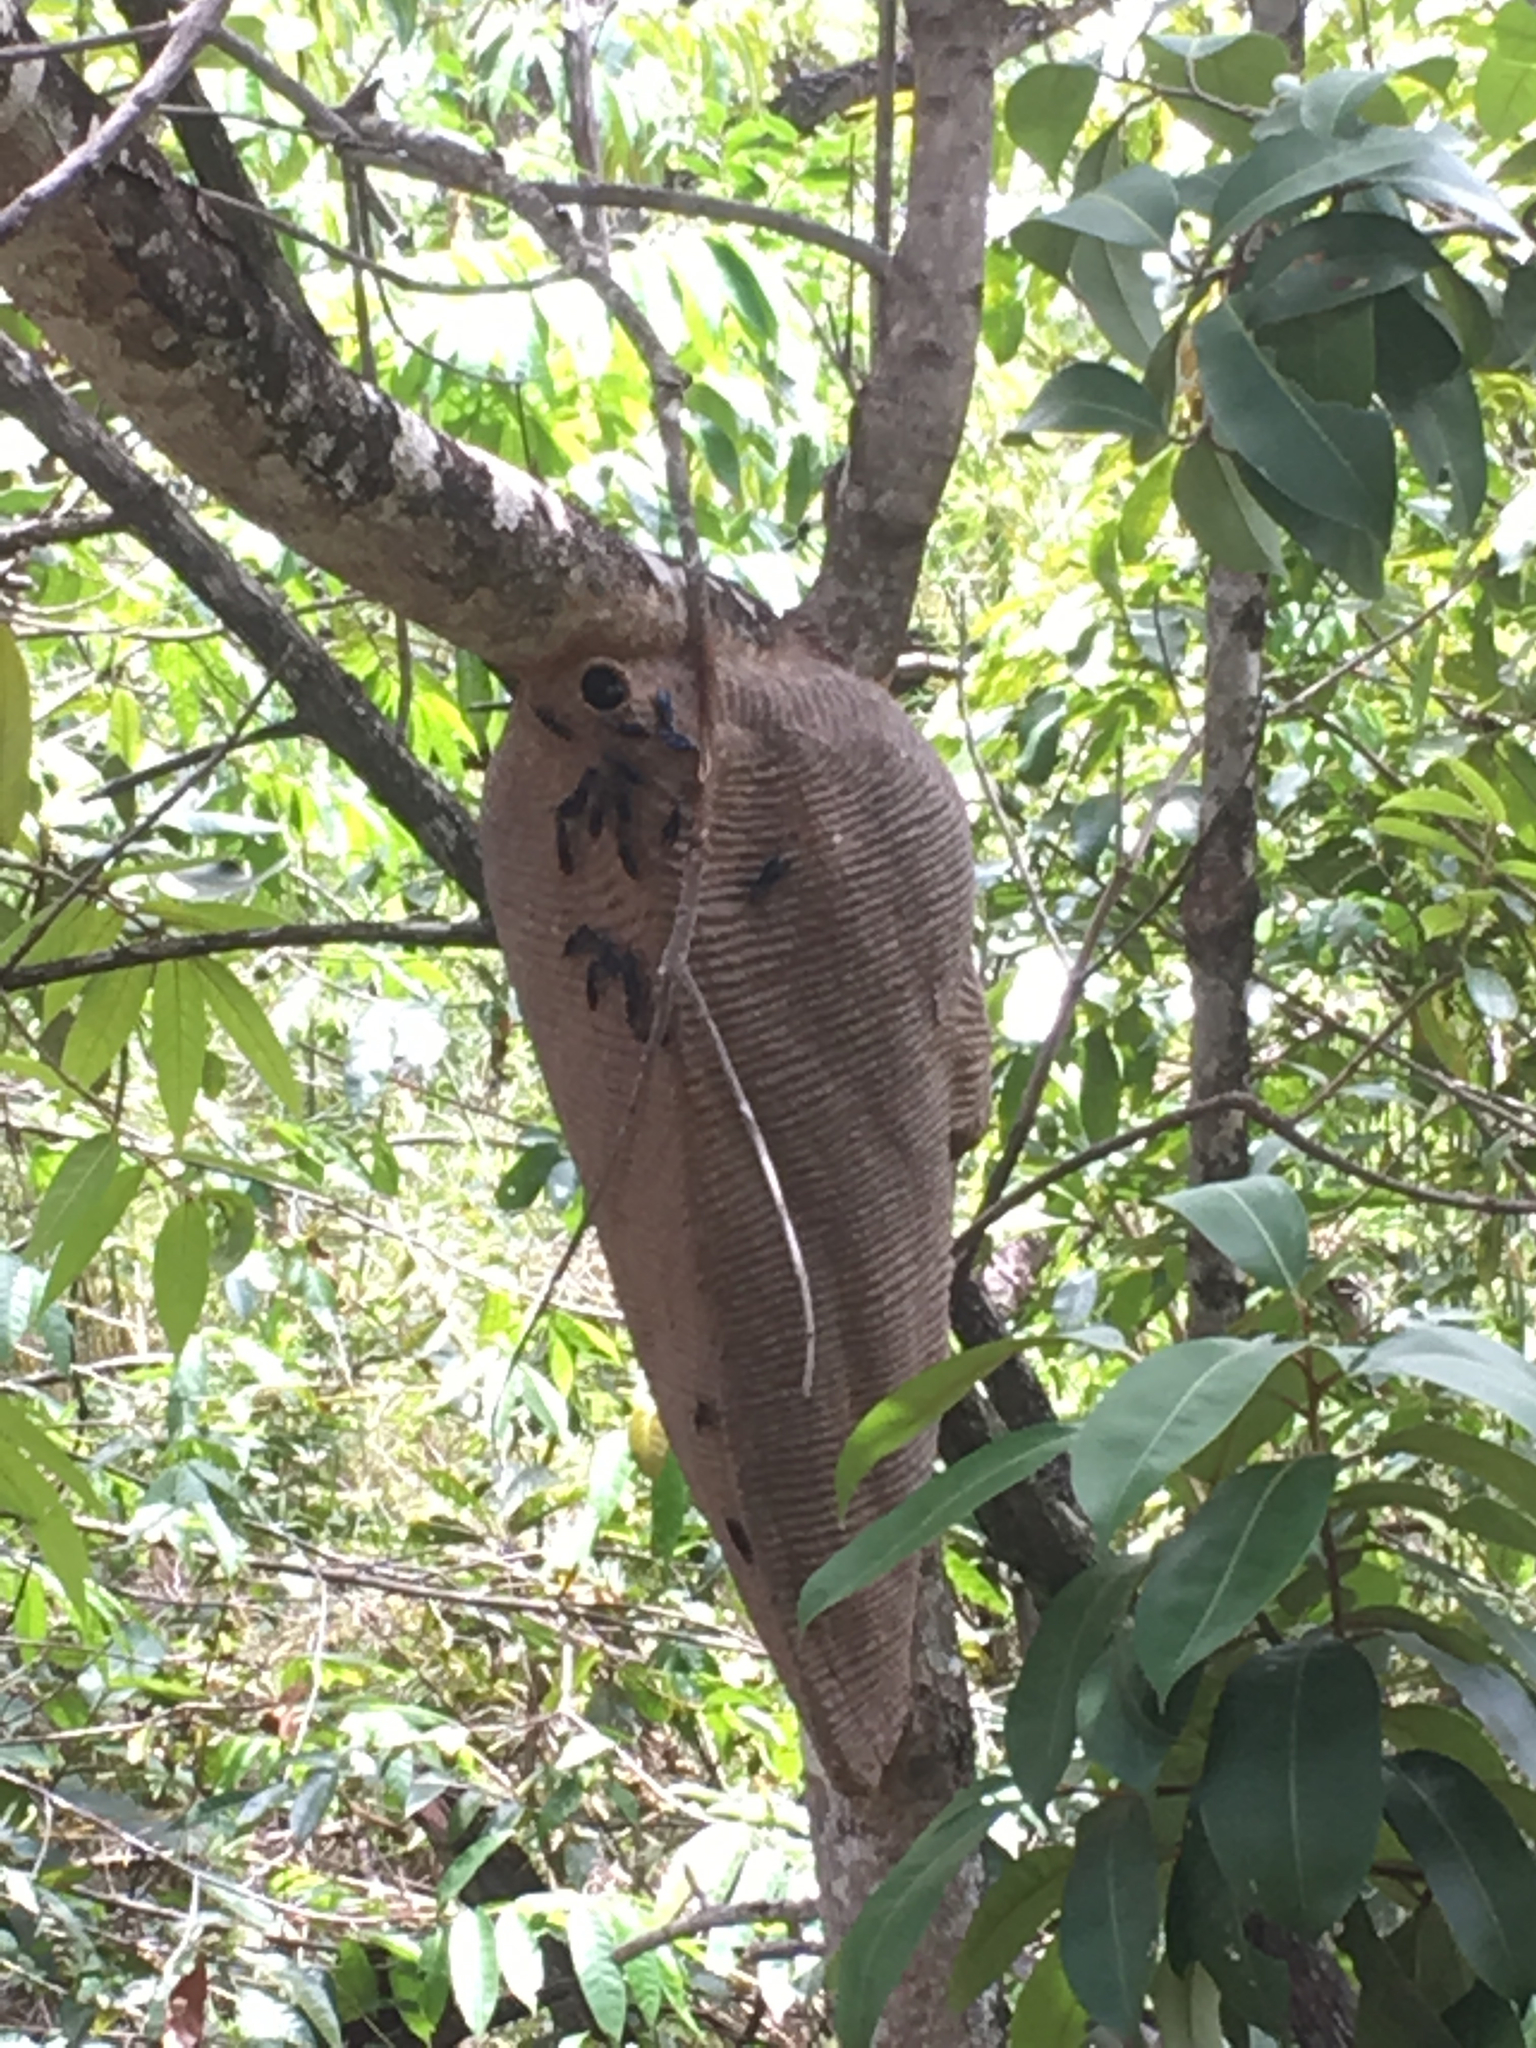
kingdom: Animalia
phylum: Arthropoda
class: Insecta
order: Hymenoptera
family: Vespidae
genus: Synoeca
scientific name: Synoeca
